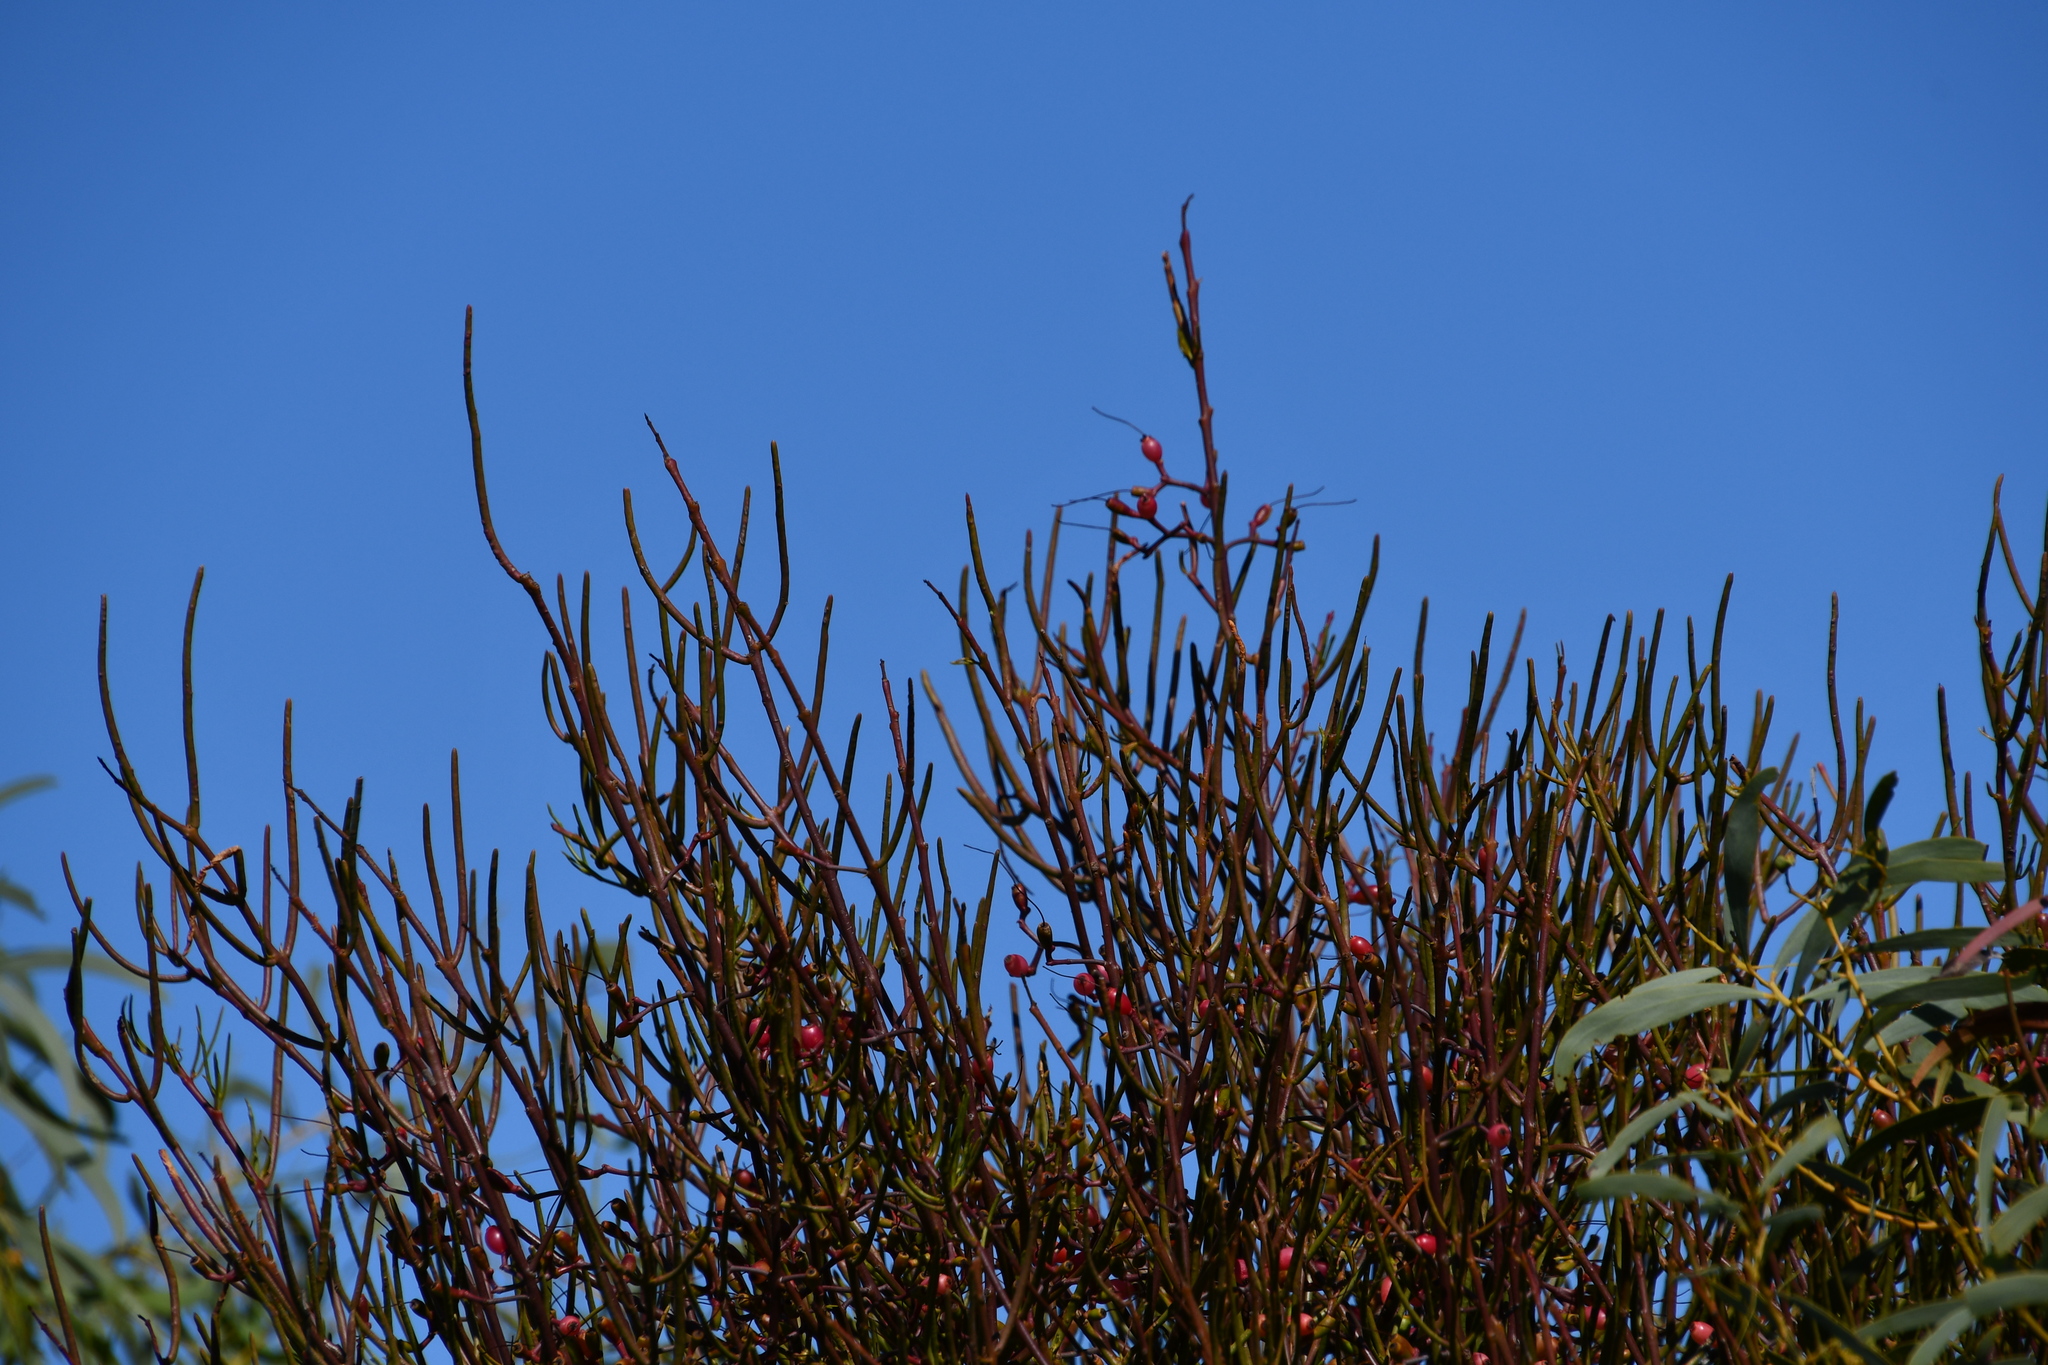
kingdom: Plantae
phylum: Tracheophyta
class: Magnoliopsida
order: Santalales
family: Loranthaceae
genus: Amyema
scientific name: Amyema preissii
